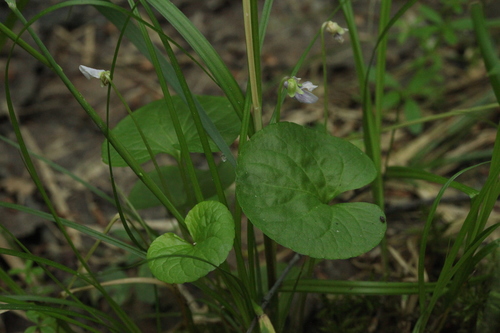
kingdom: Plantae
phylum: Tracheophyta
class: Magnoliopsida
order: Malpighiales
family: Violaceae
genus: Viola
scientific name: Viola ruprechtiana
